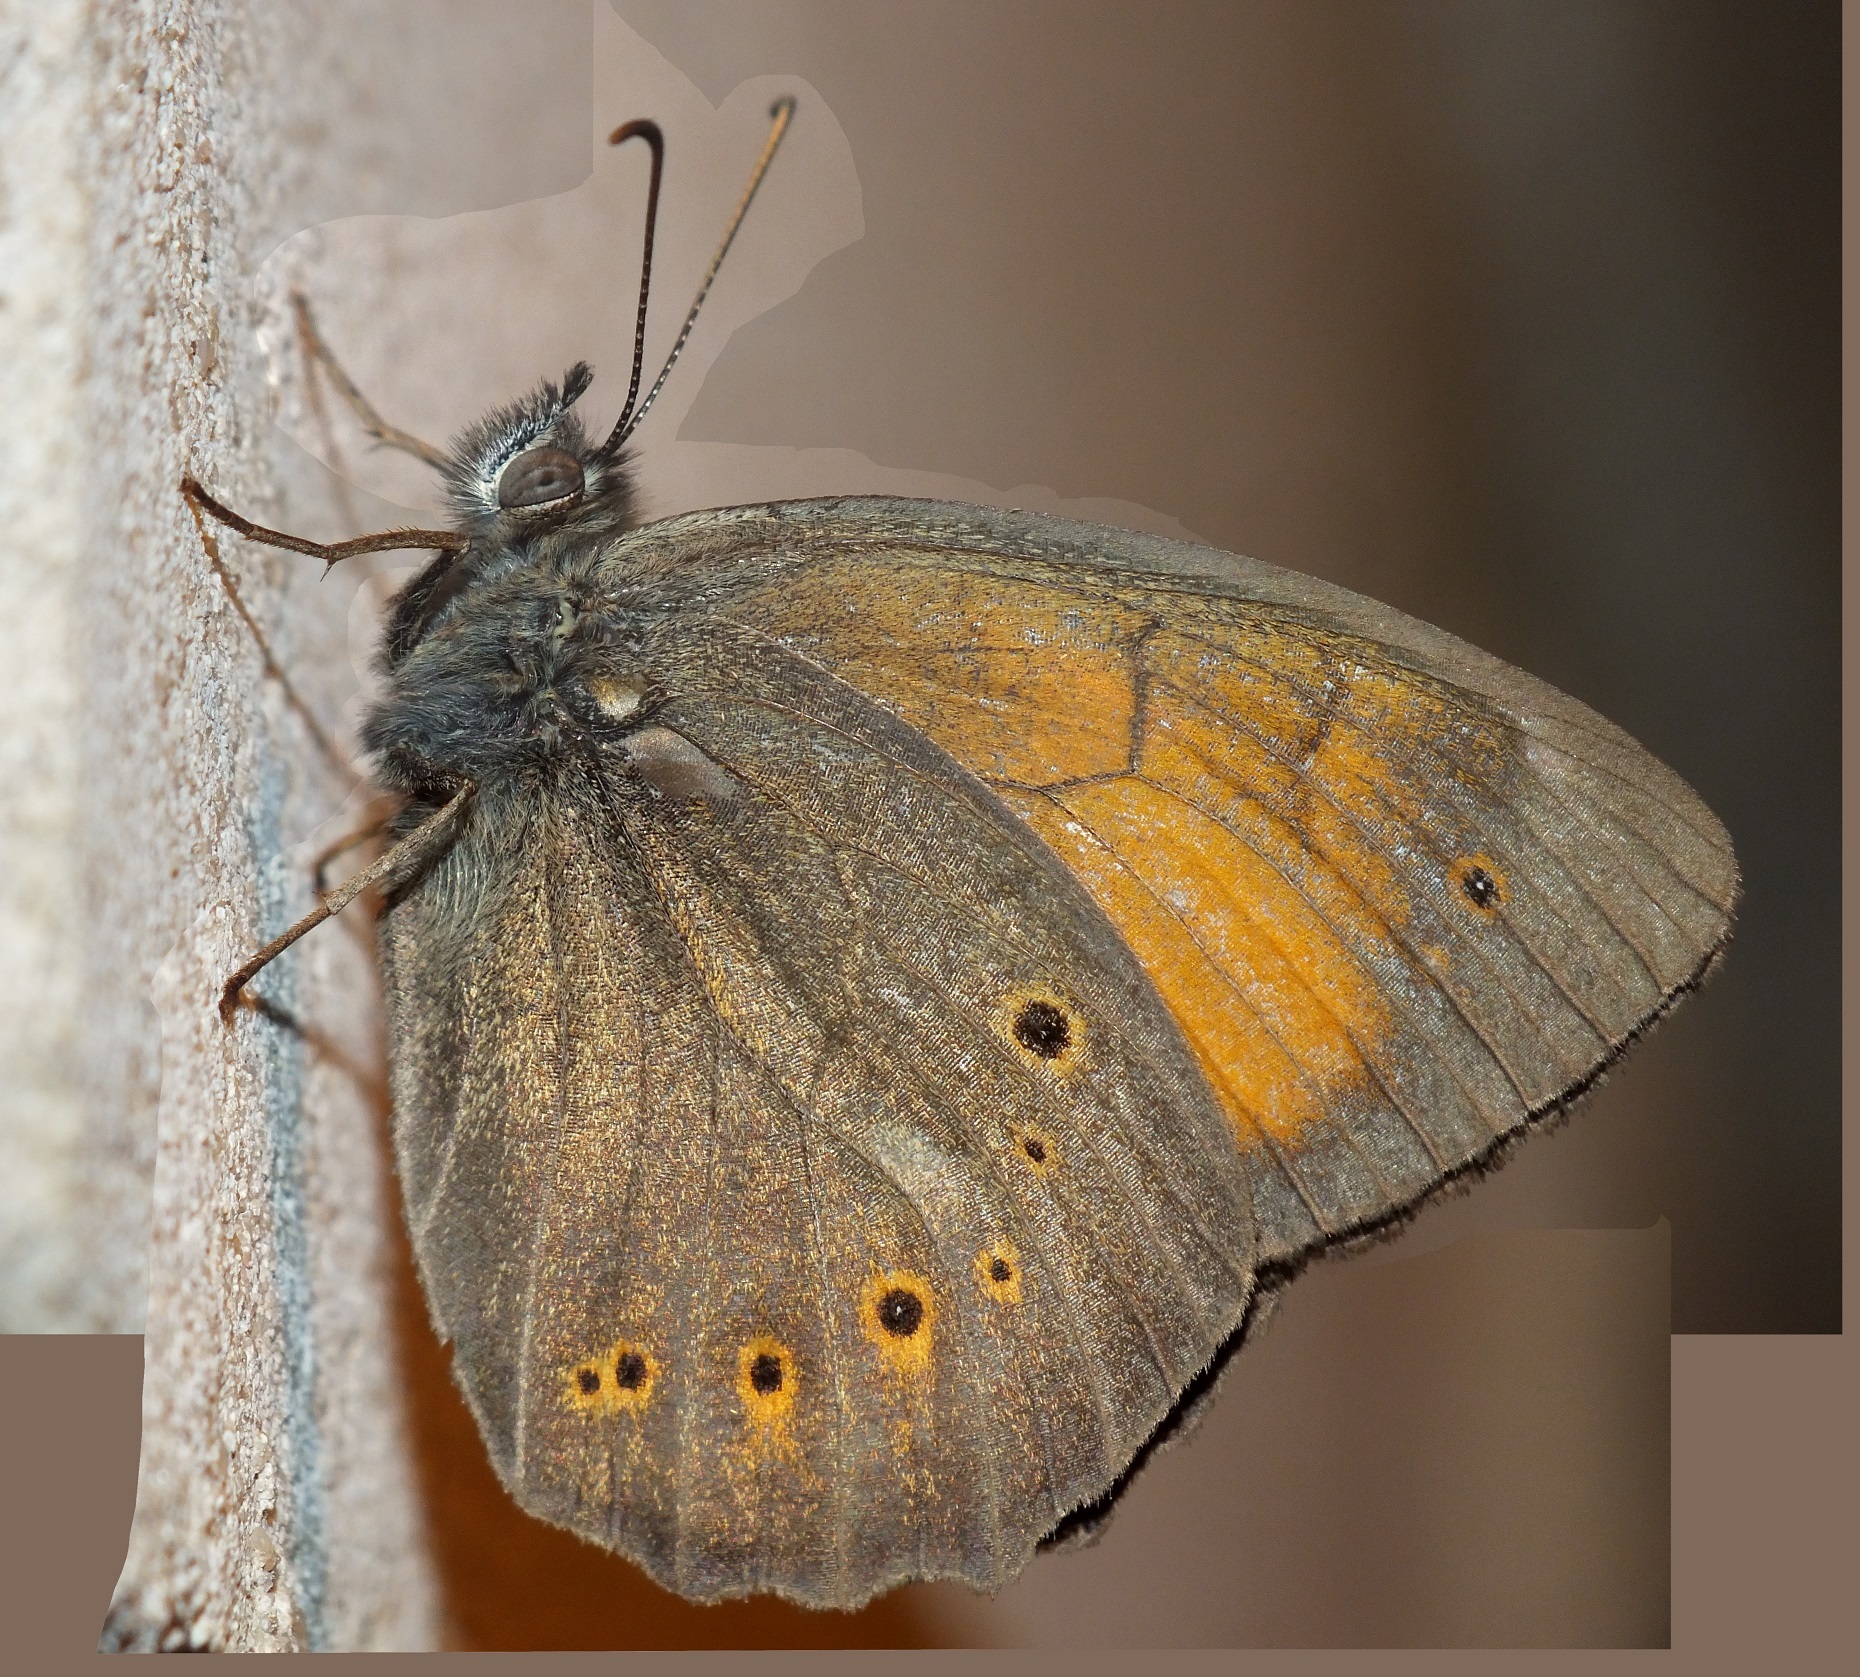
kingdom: Animalia
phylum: Arthropoda
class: Insecta
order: Lepidoptera
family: Nymphalidae
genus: Kirinia
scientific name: Kirinia climene
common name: Lesser lattice brown
